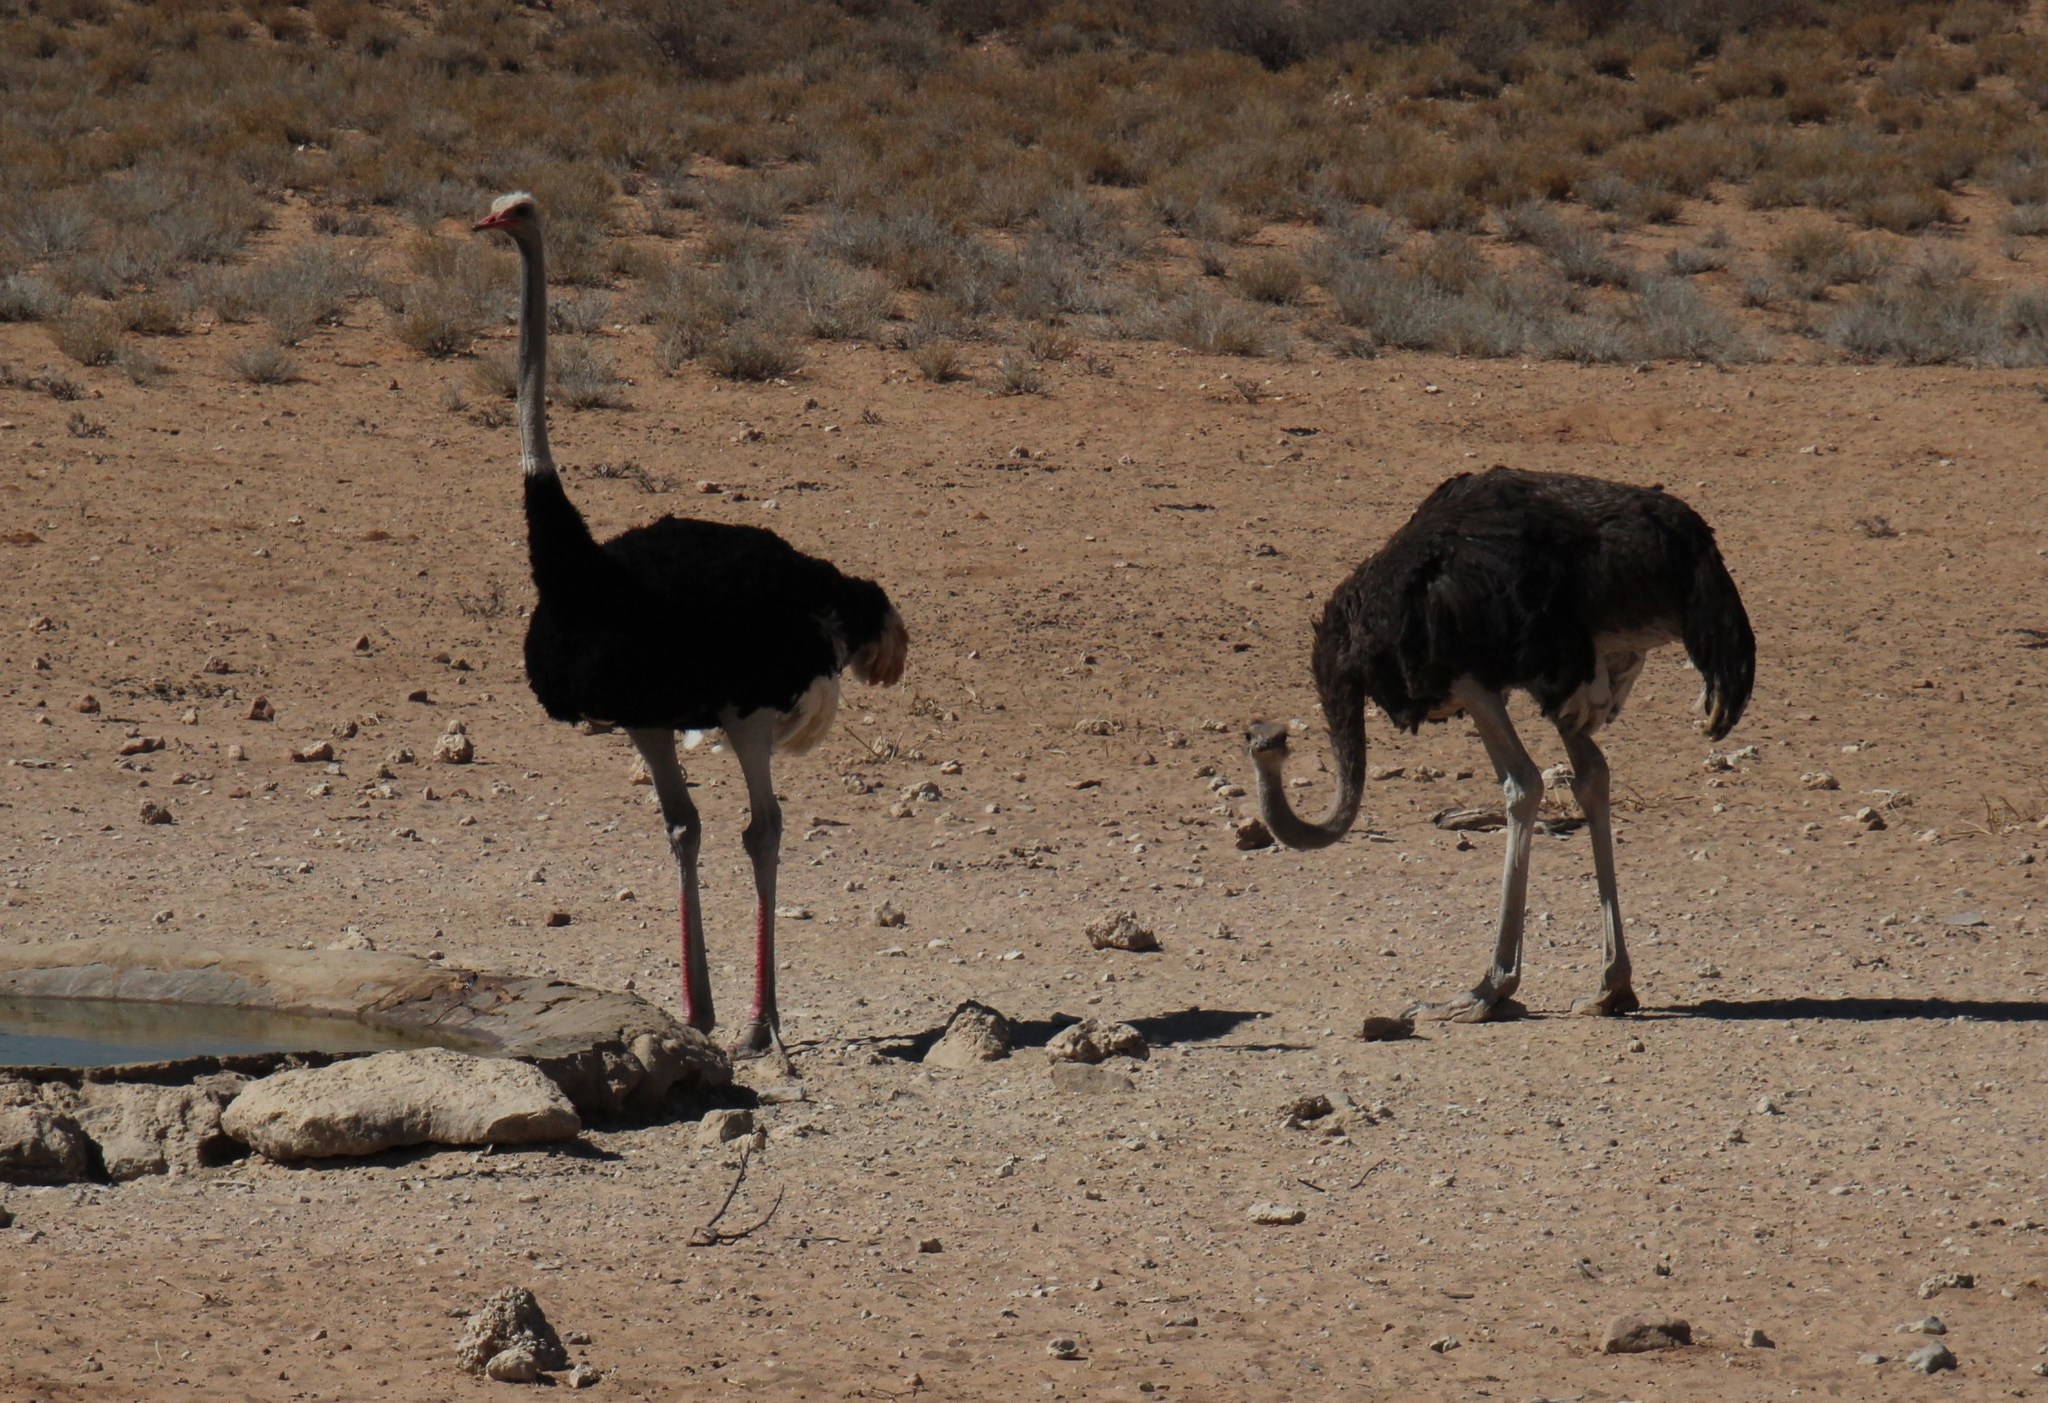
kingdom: Animalia
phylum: Chordata
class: Aves
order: Struthioniformes
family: Struthionidae
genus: Struthio
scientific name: Struthio camelus
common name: Common ostrich
